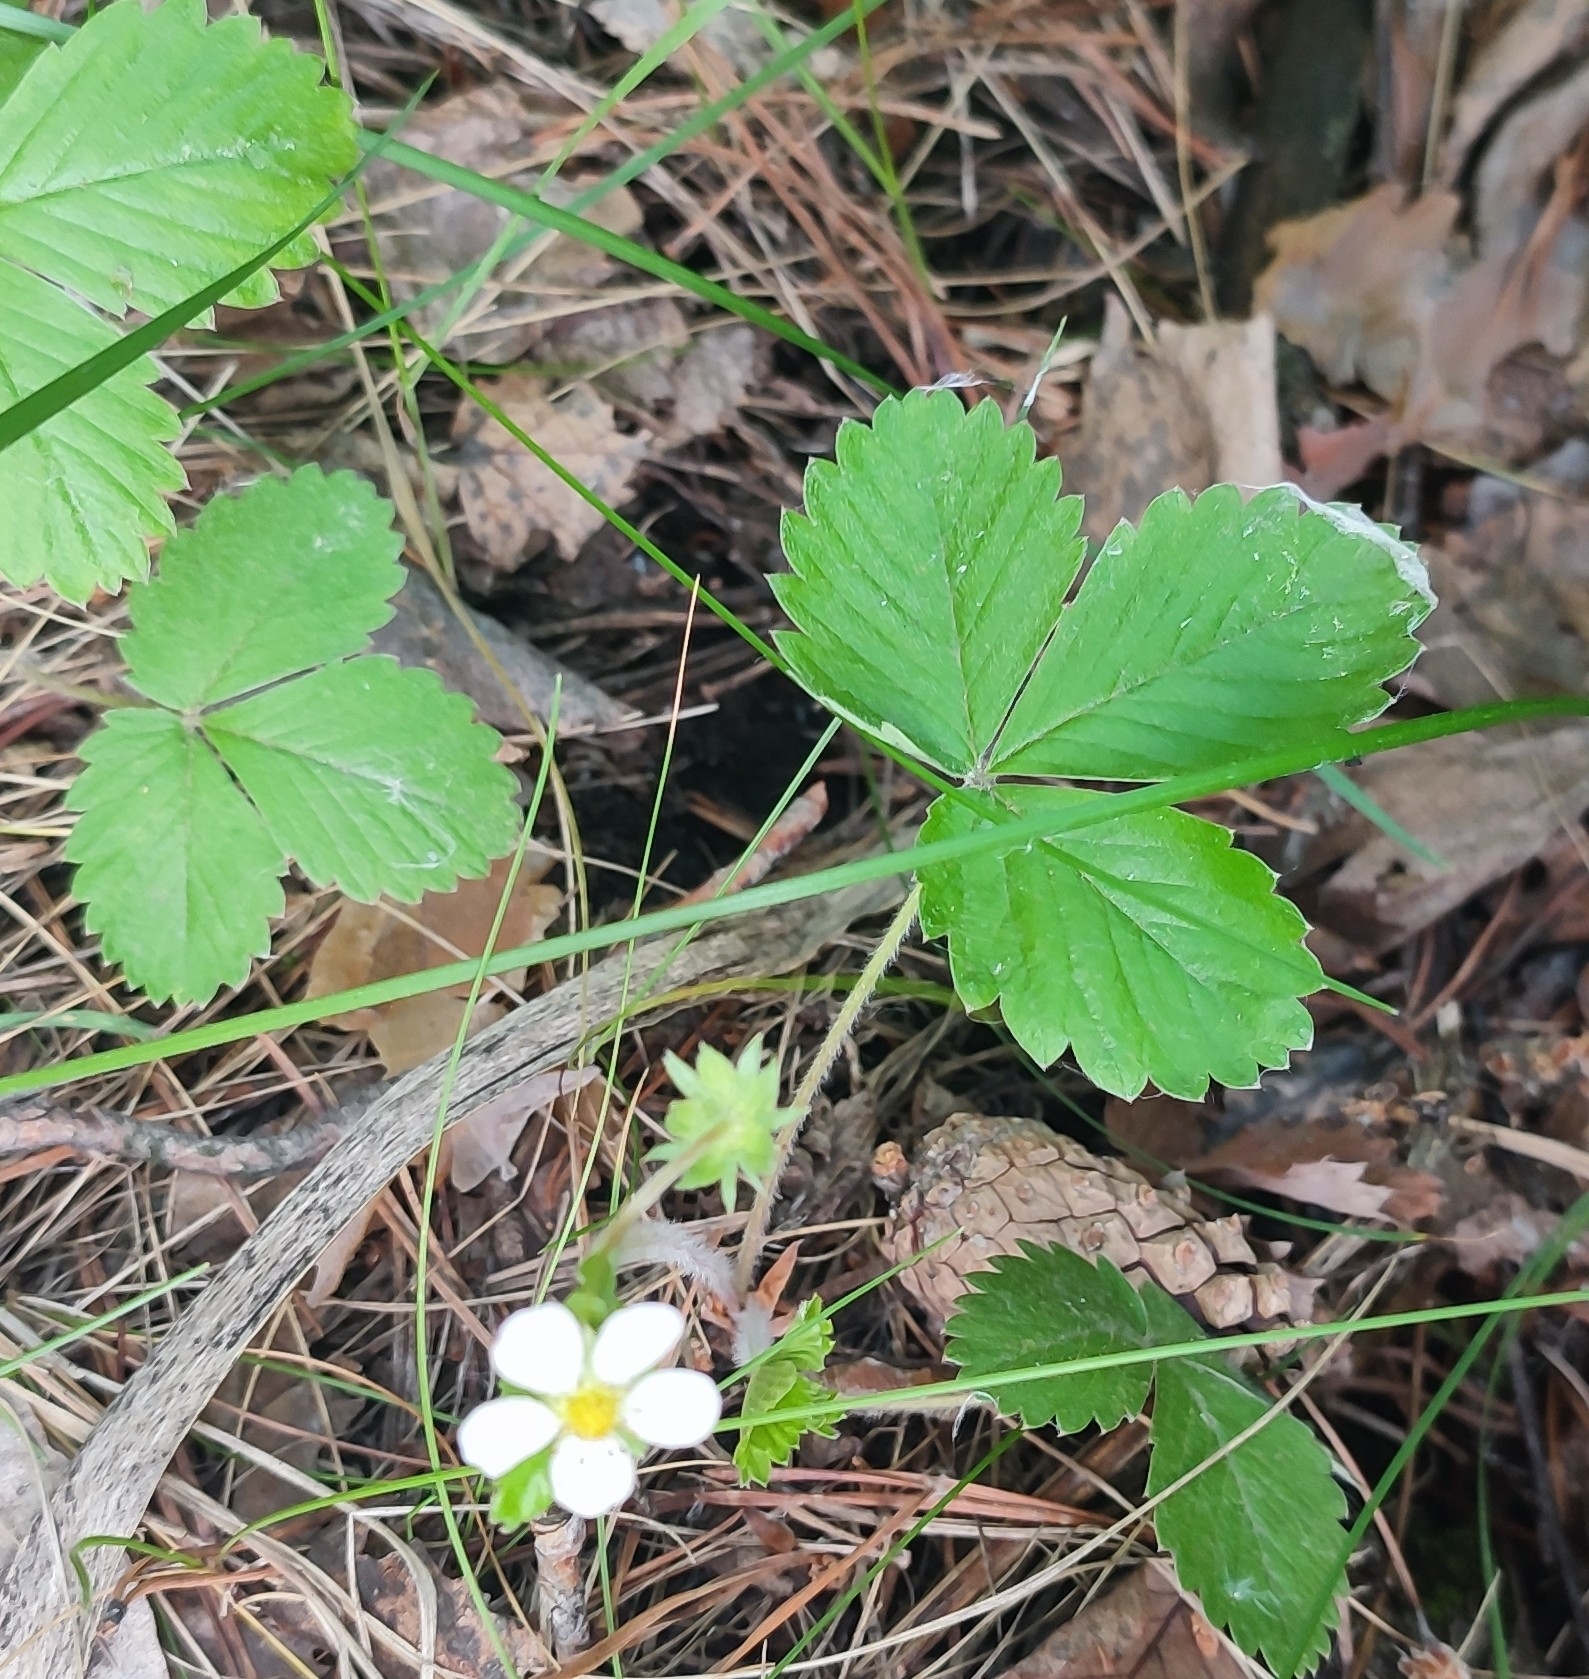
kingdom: Plantae
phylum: Tracheophyta
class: Magnoliopsida
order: Rosales
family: Rosaceae
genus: Fragaria
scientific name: Fragaria vesca
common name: Wild strawberry
